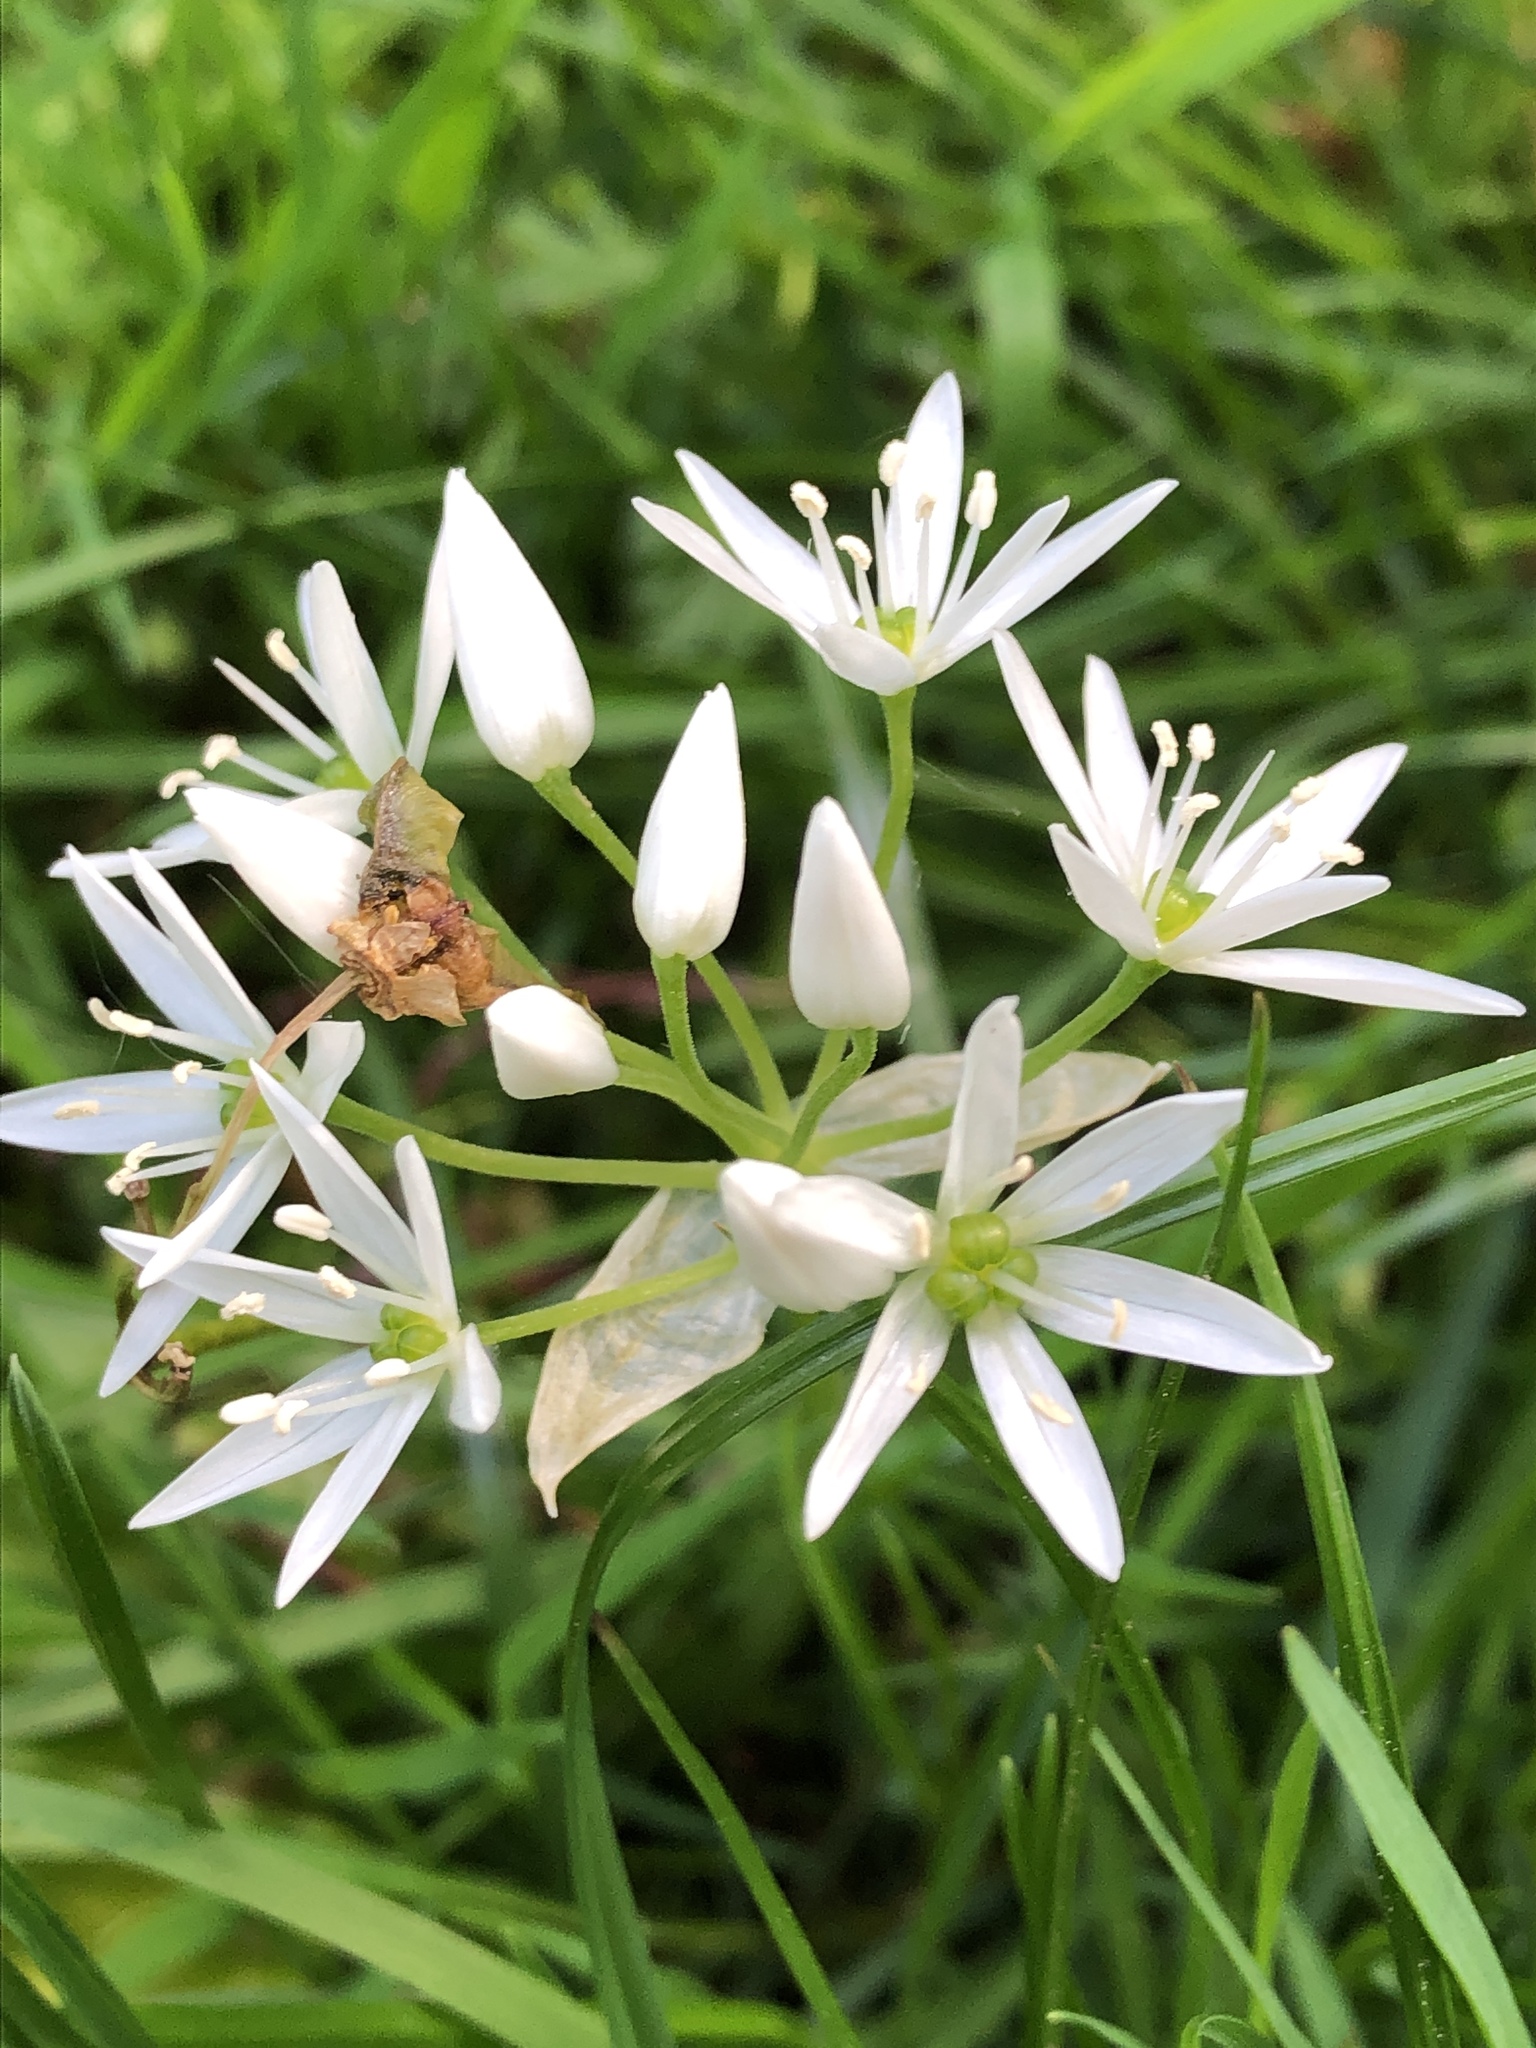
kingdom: Plantae
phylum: Tracheophyta
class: Liliopsida
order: Asparagales
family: Amaryllidaceae
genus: Allium
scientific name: Allium ursinum
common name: Ramsons
